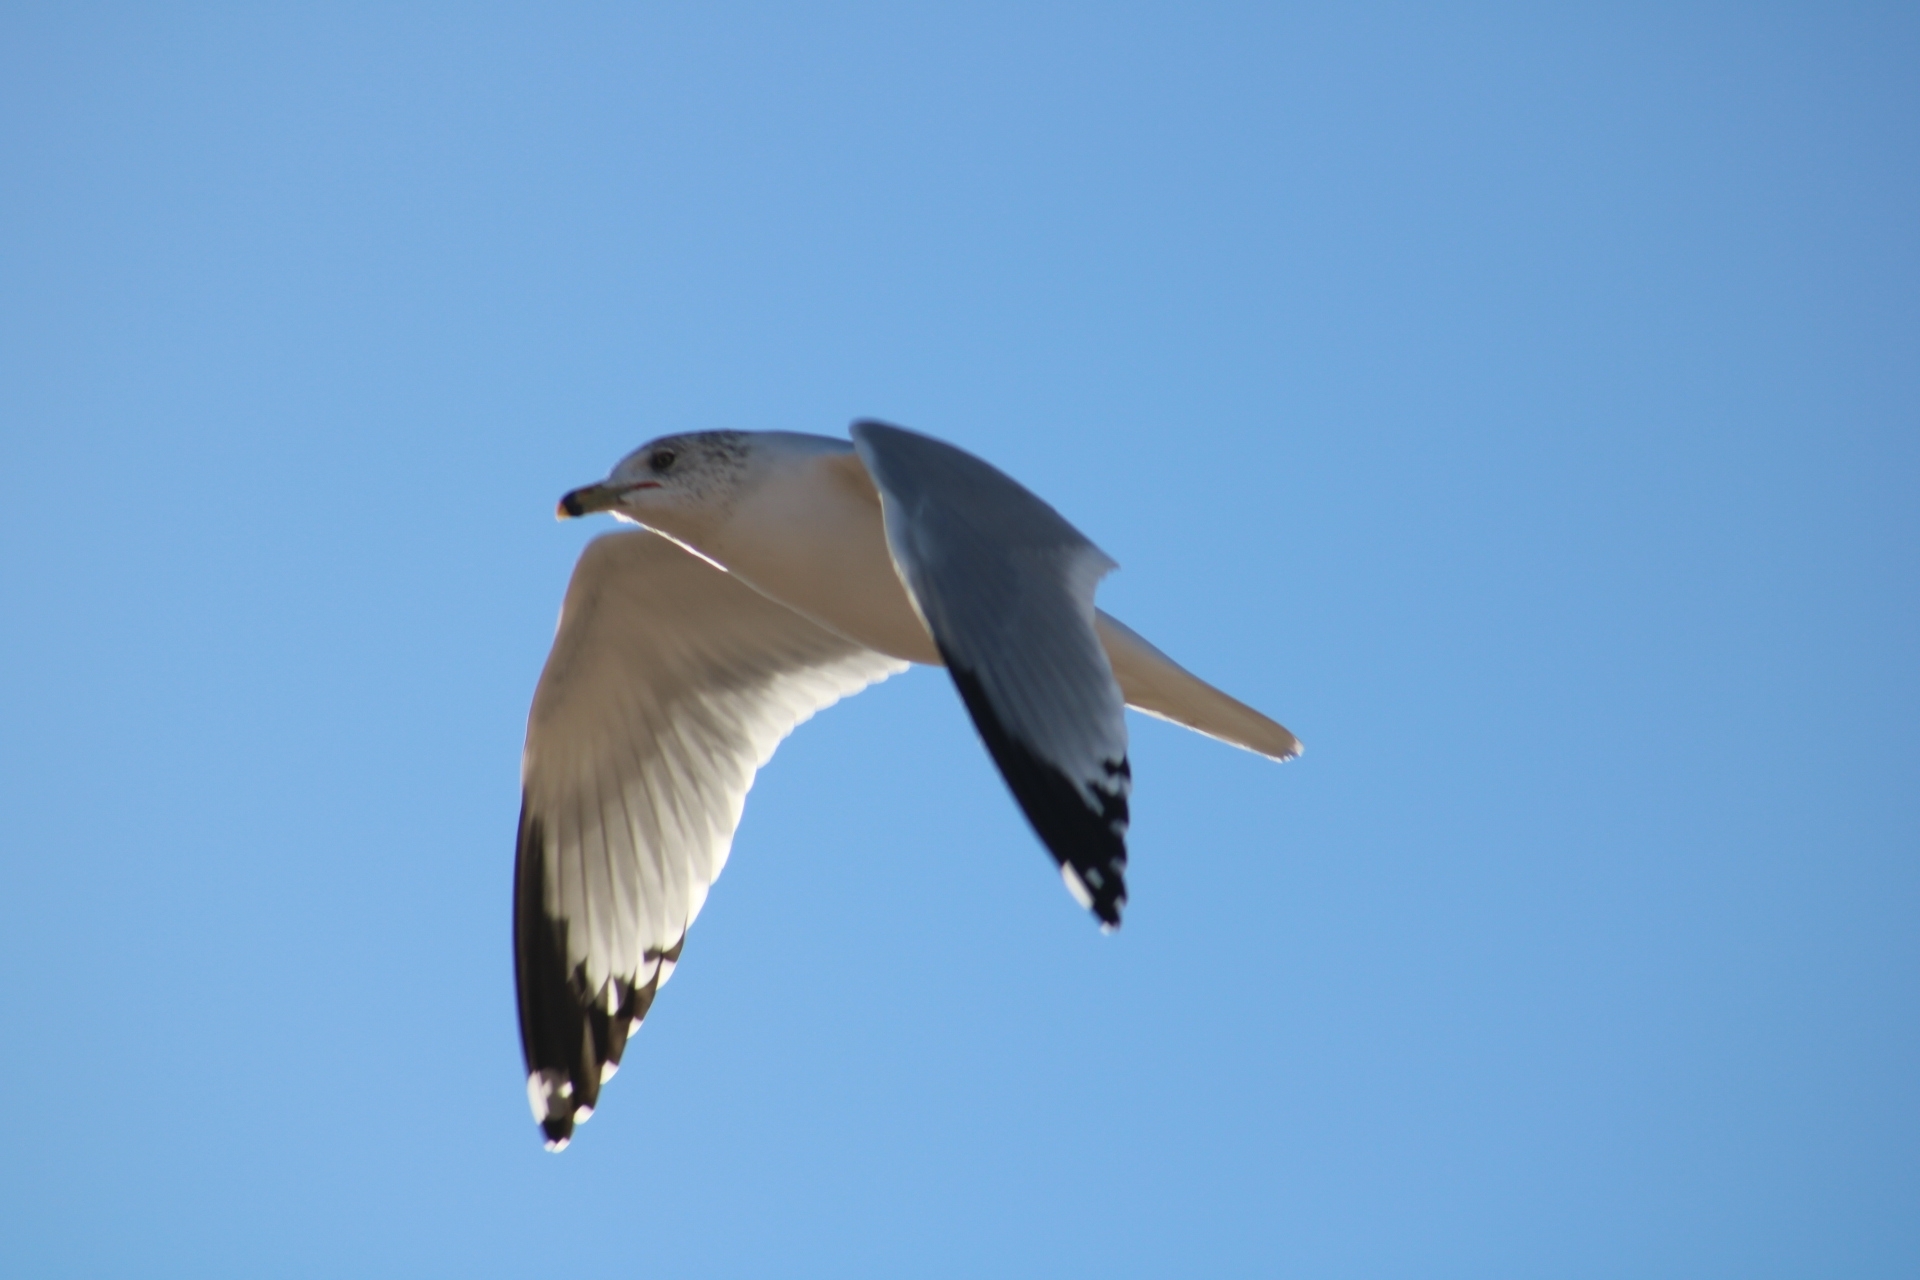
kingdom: Animalia
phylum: Chordata
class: Aves
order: Charadriiformes
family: Laridae
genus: Larus
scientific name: Larus delawarensis
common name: Ring-billed gull
